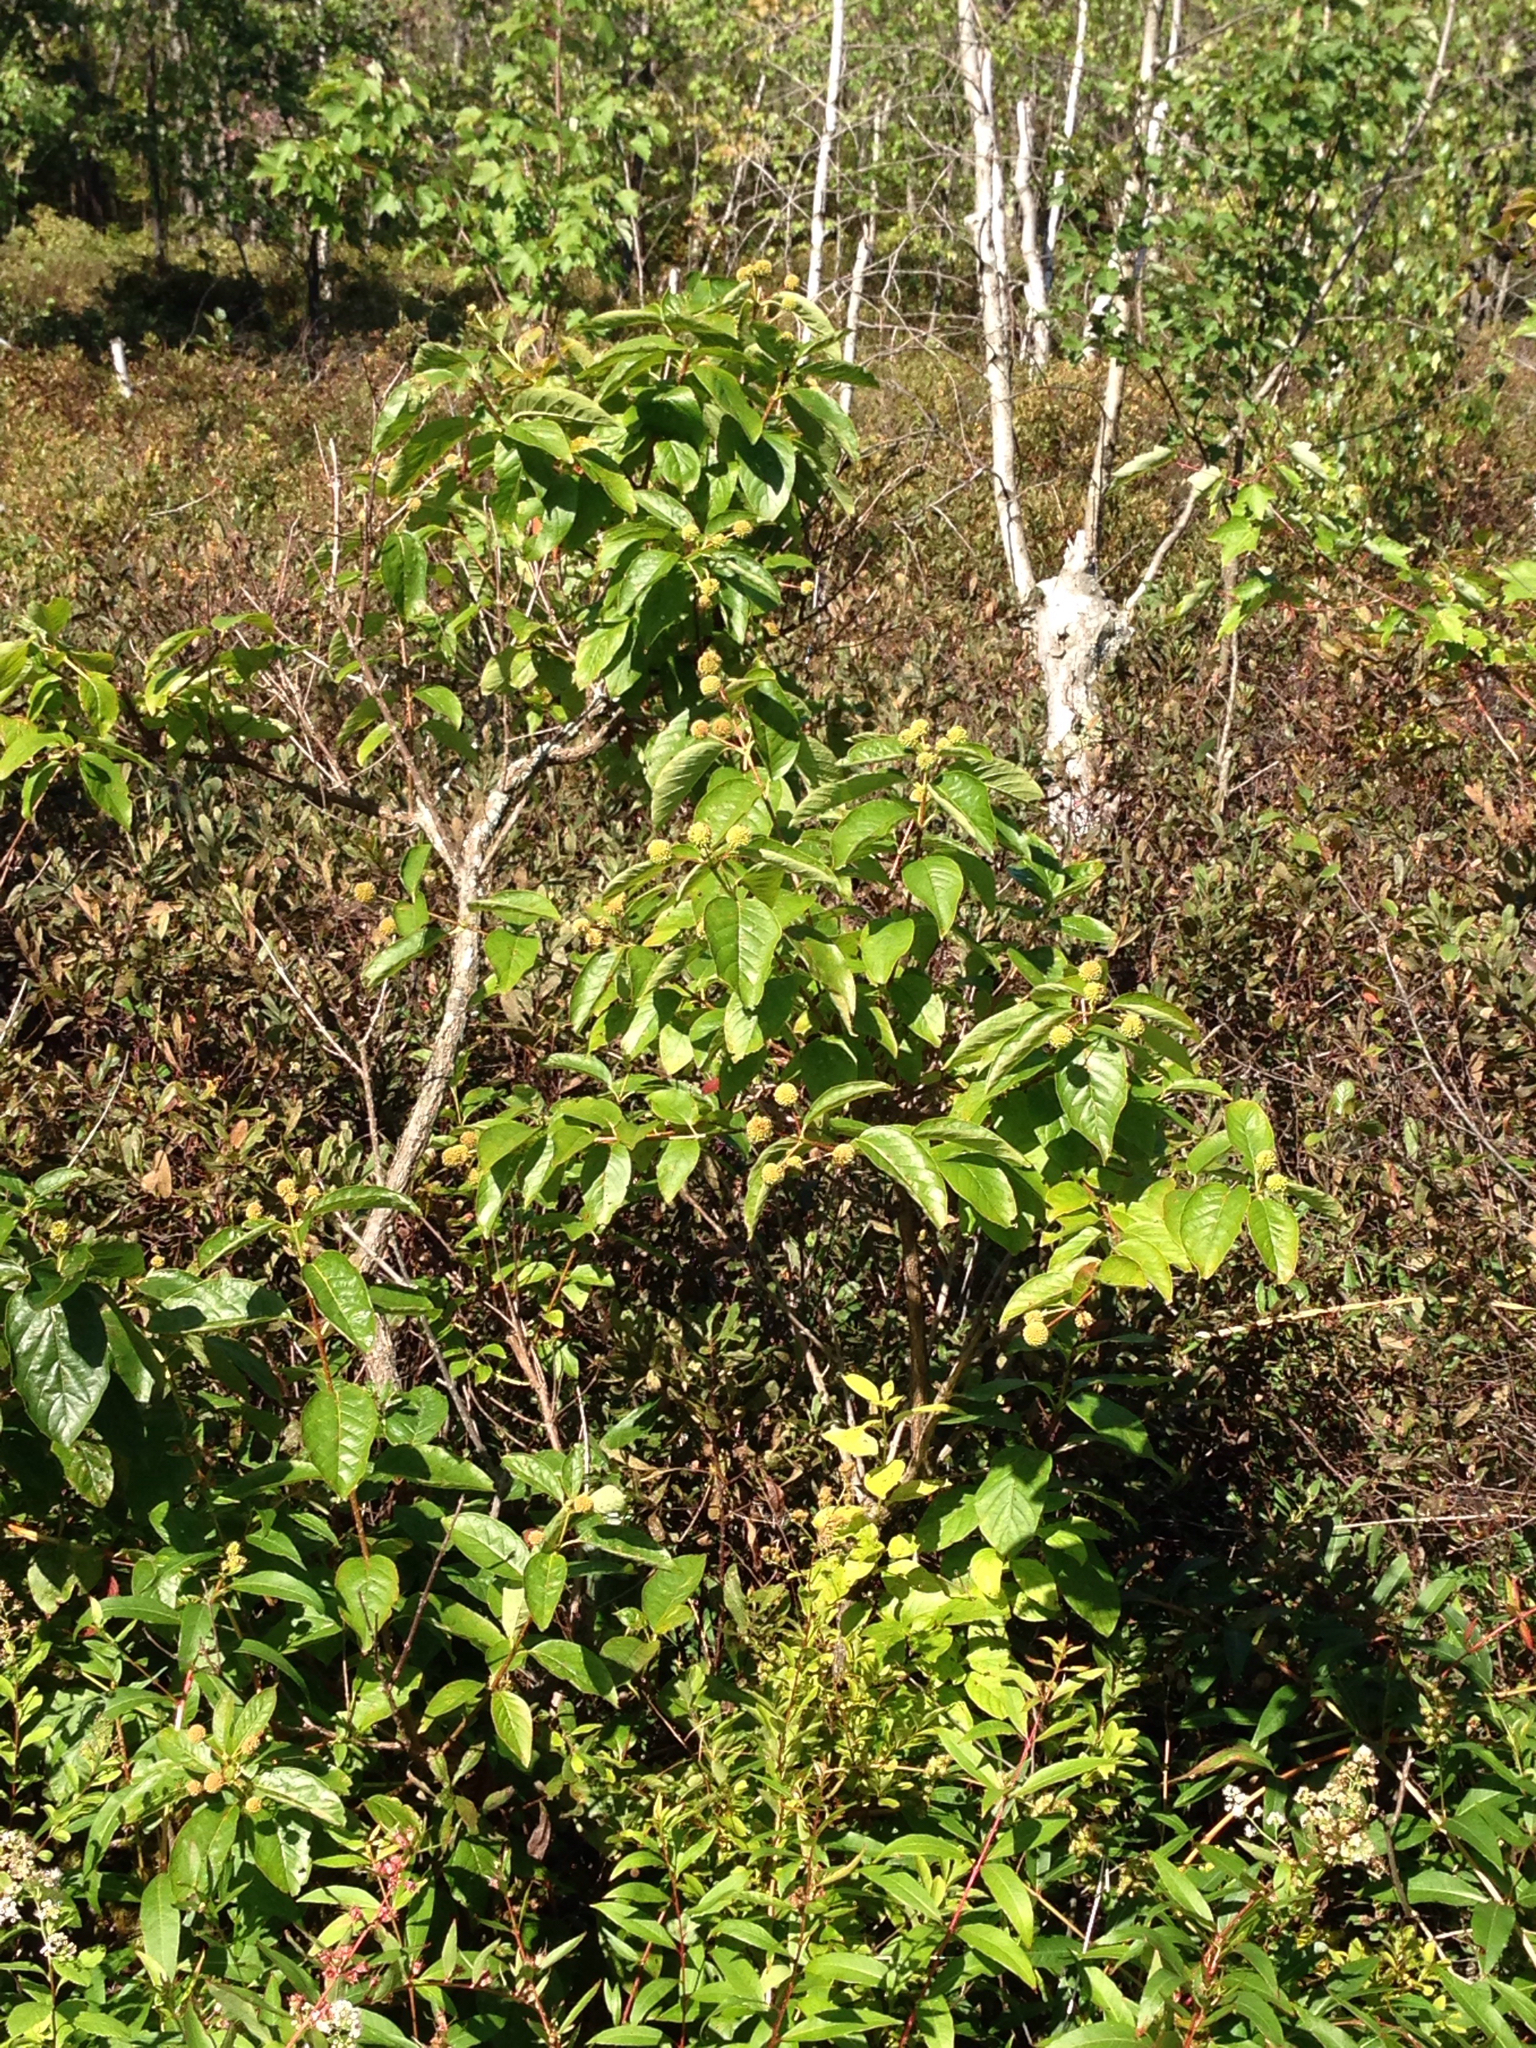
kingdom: Plantae
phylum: Tracheophyta
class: Magnoliopsida
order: Gentianales
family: Rubiaceae
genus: Cephalanthus
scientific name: Cephalanthus occidentalis
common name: Button-willow
